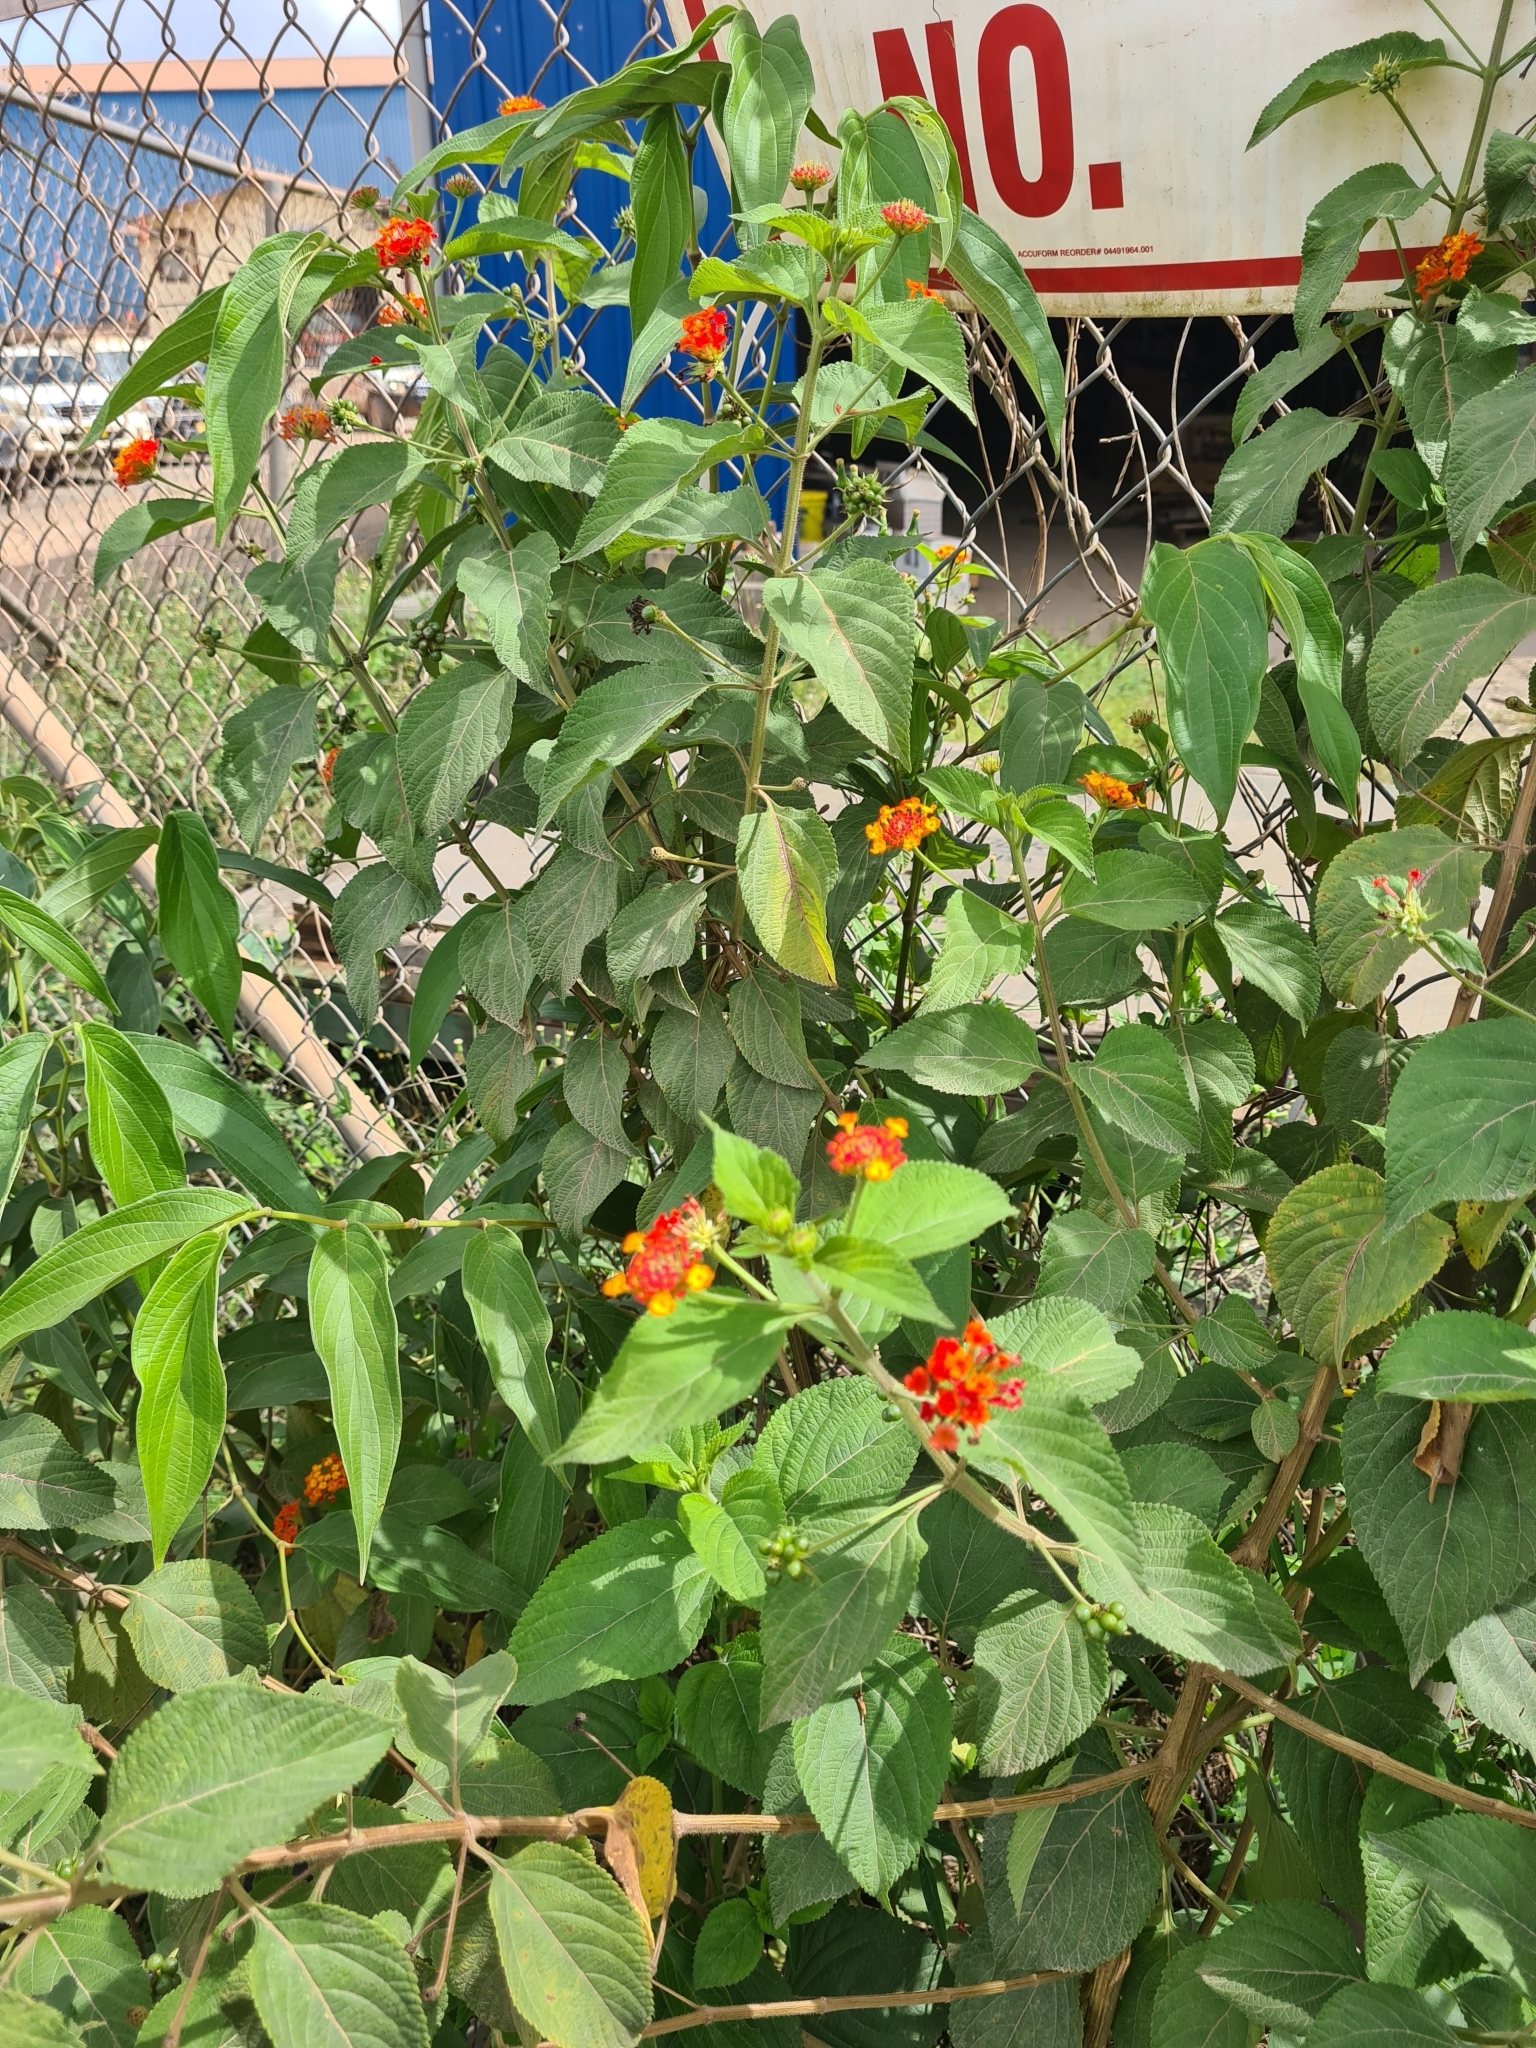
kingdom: Plantae
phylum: Tracheophyta
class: Magnoliopsida
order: Lamiales
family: Verbenaceae
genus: Lantana
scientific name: Lantana camara
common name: Lantana
